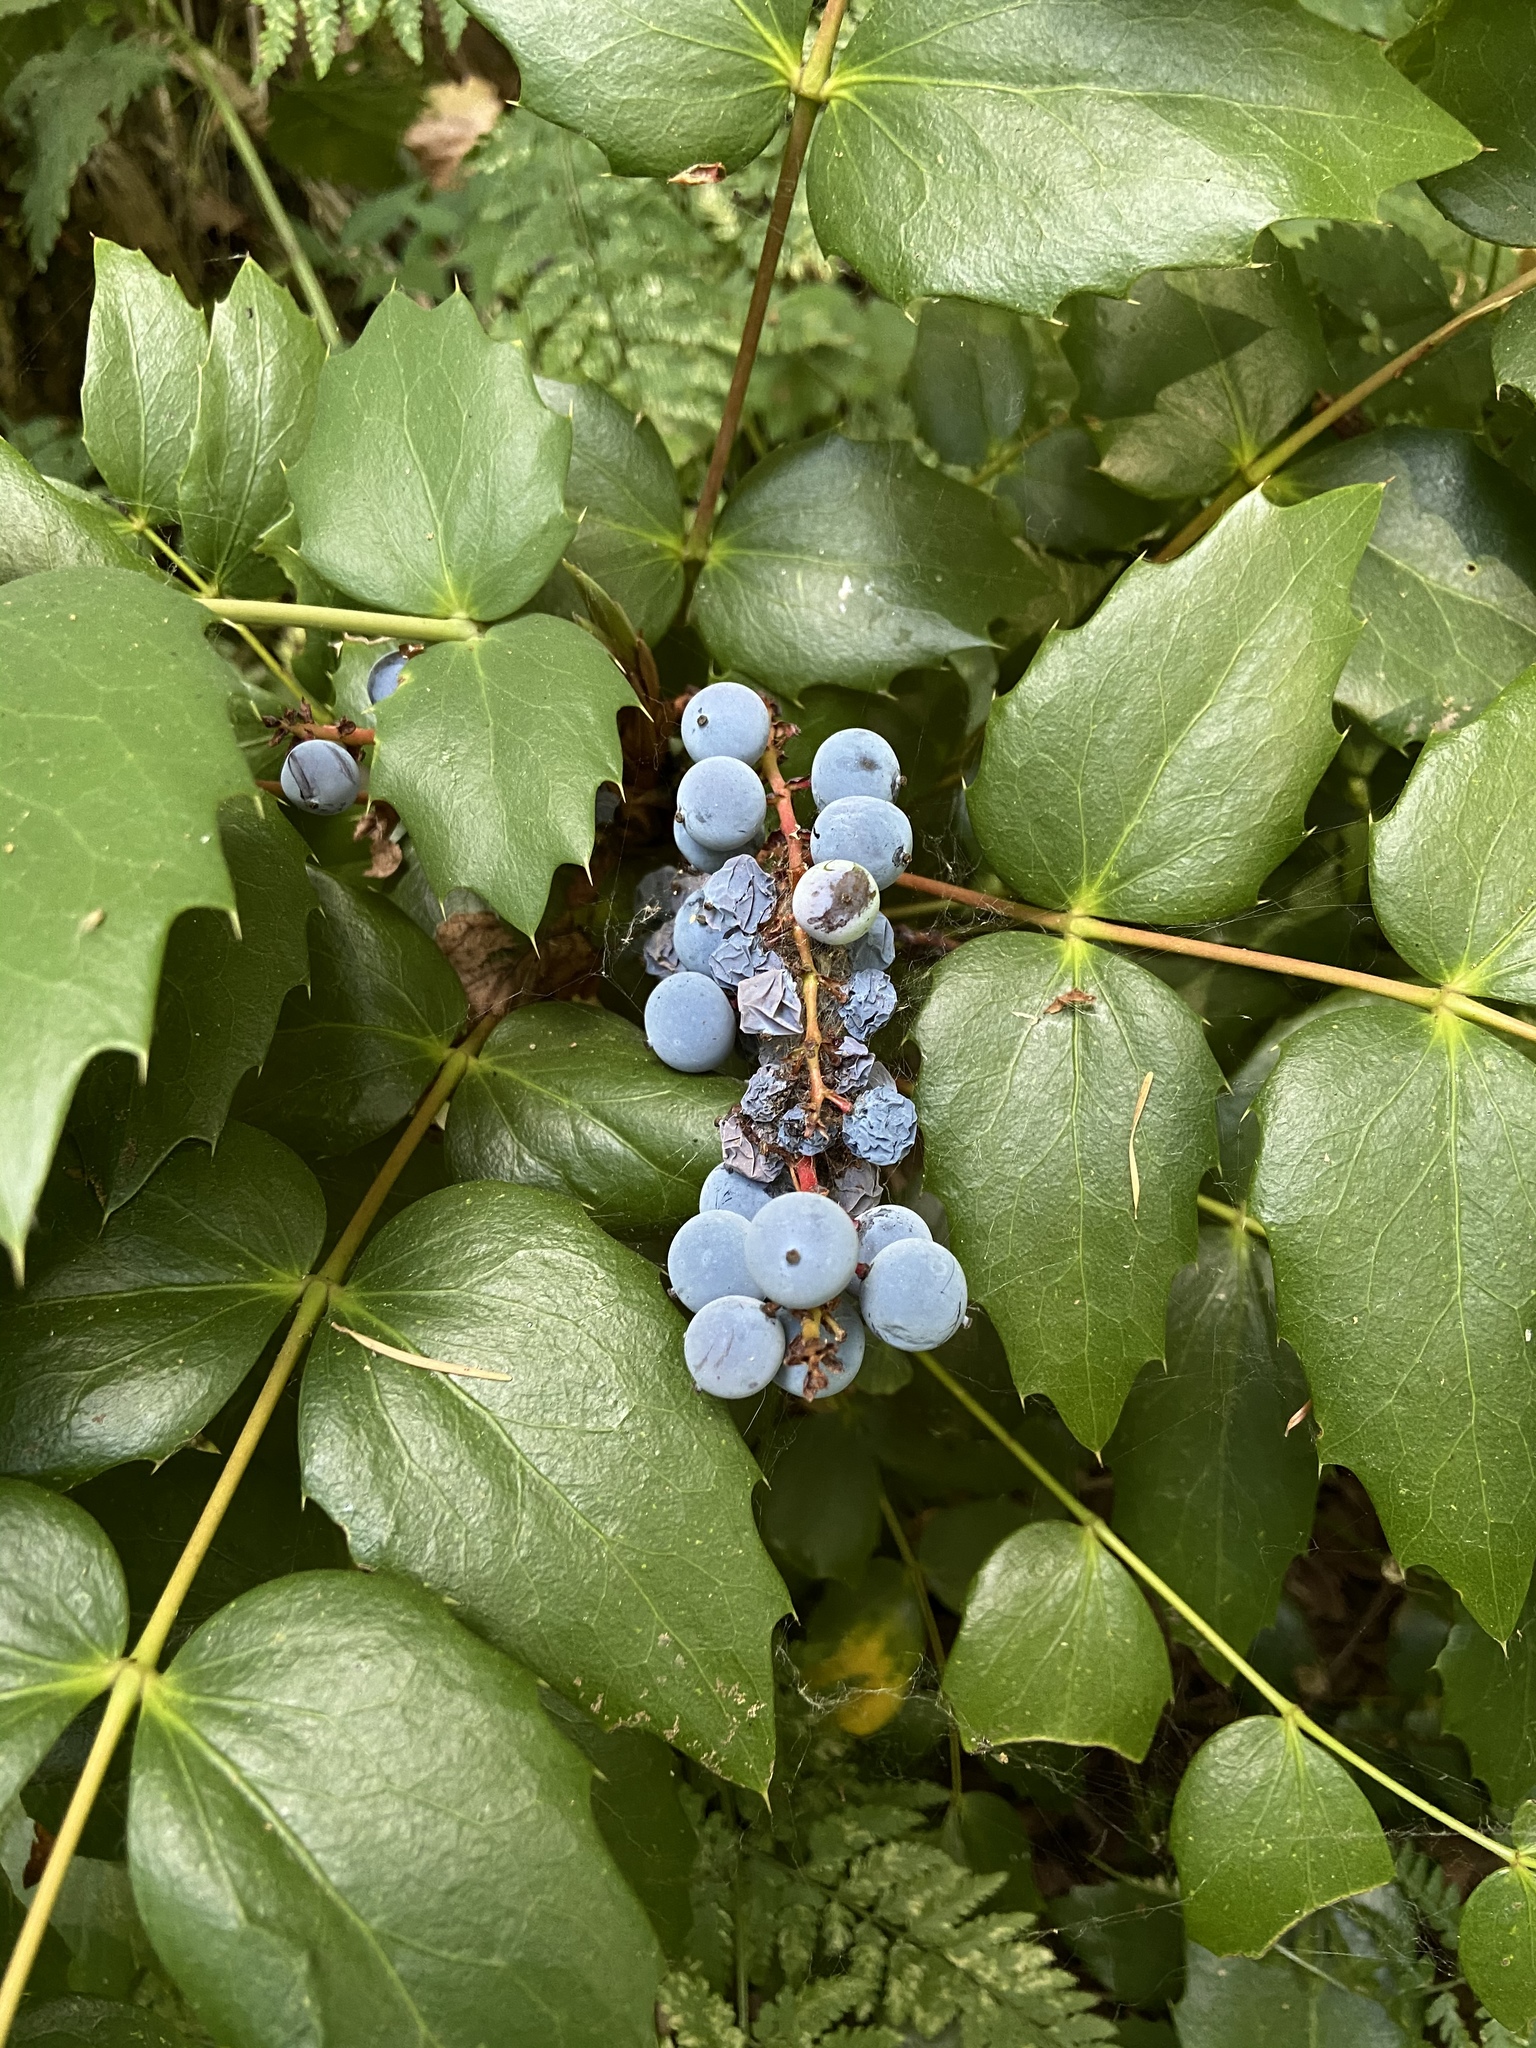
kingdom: Plantae
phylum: Tracheophyta
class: Magnoliopsida
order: Ranunculales
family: Berberidaceae
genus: Mahonia
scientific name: Mahonia nervosa
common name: Cascade oregon-grape
